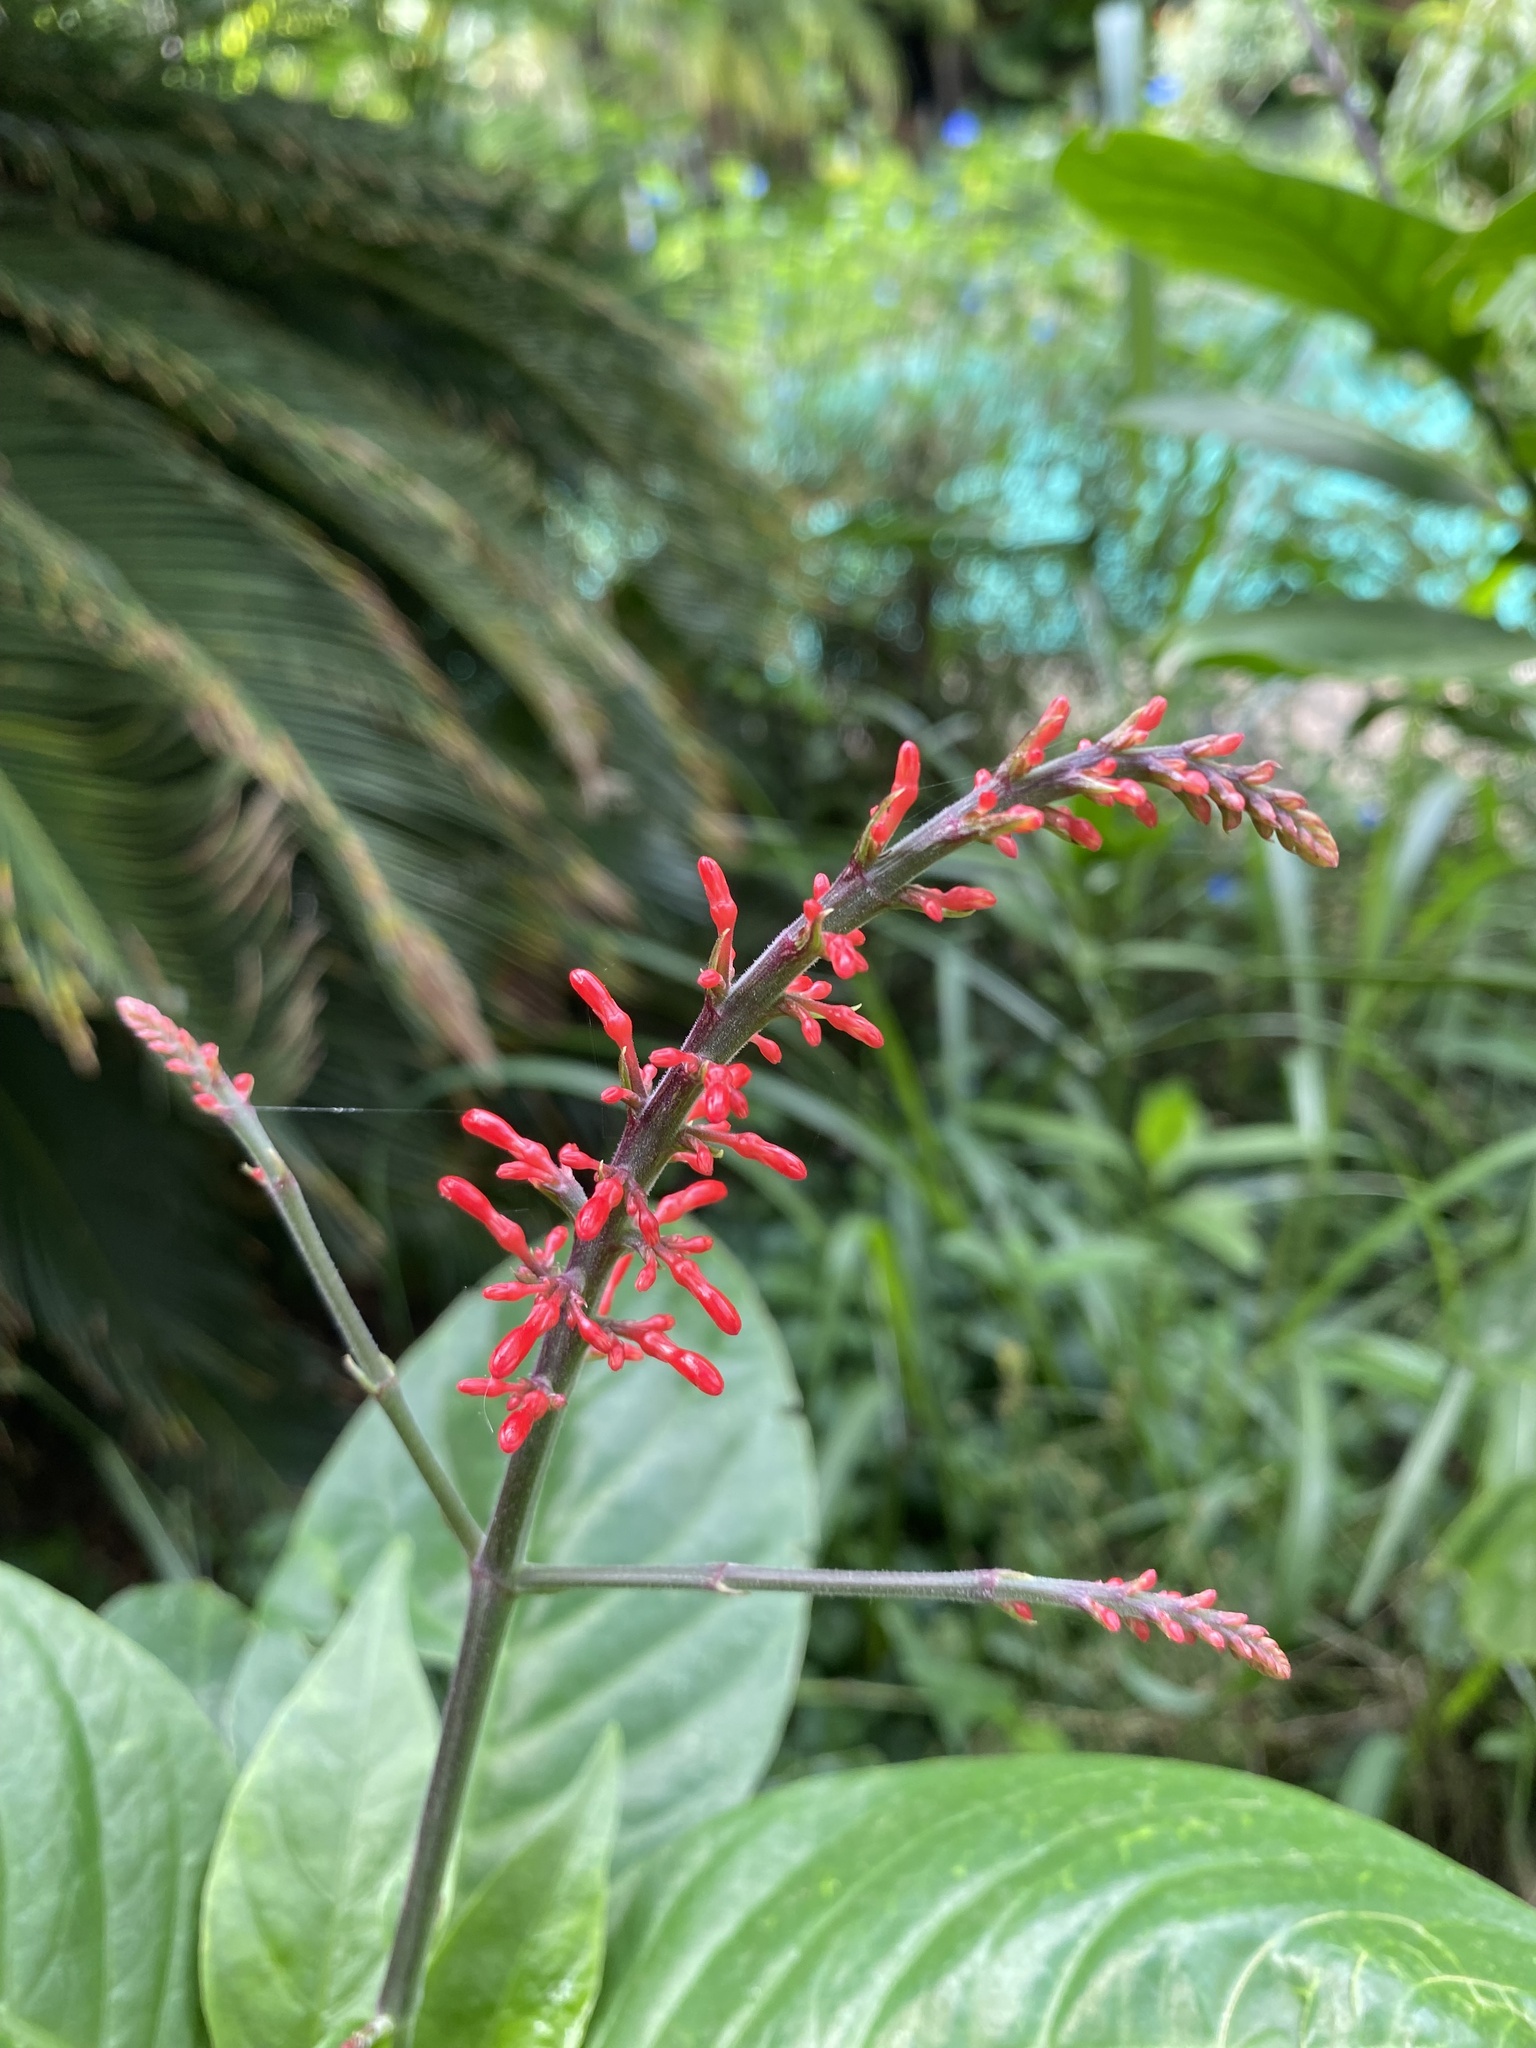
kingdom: Plantae
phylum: Tracheophyta
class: Magnoliopsida
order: Lamiales
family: Acanthaceae
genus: Odontonema
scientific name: Odontonema tubaeforme
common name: Firespike
